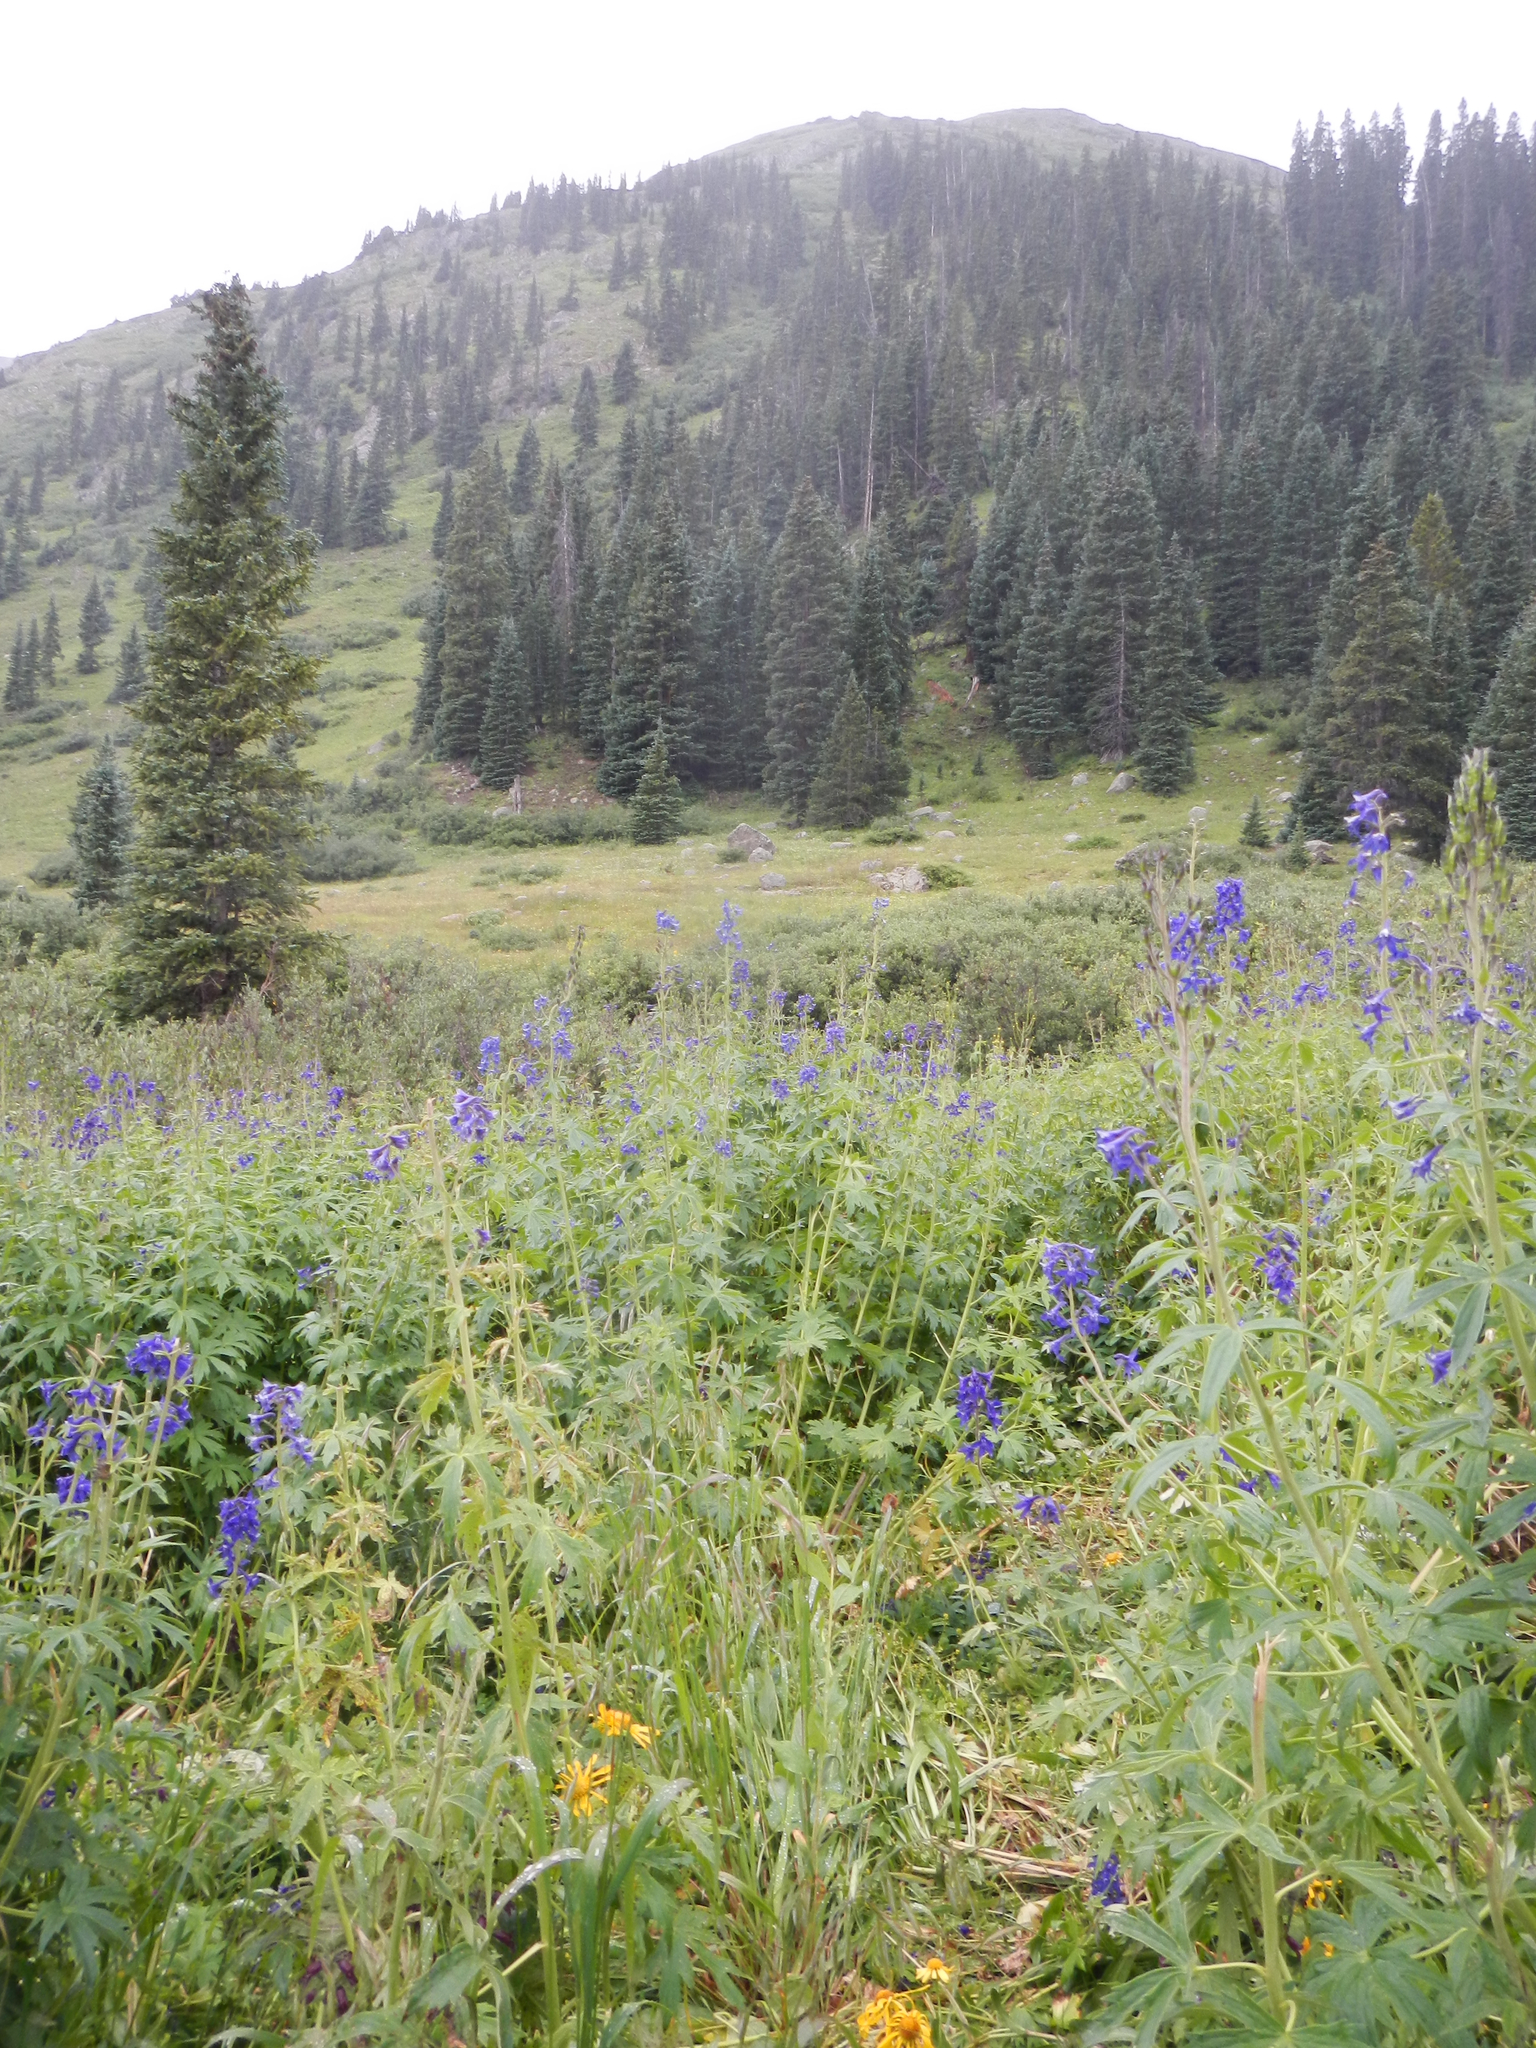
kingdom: Plantae
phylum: Tracheophyta
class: Magnoliopsida
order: Ranunculales
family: Ranunculaceae
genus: Delphinium
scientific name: Delphinium barbeyi
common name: Subalpine larkspur
